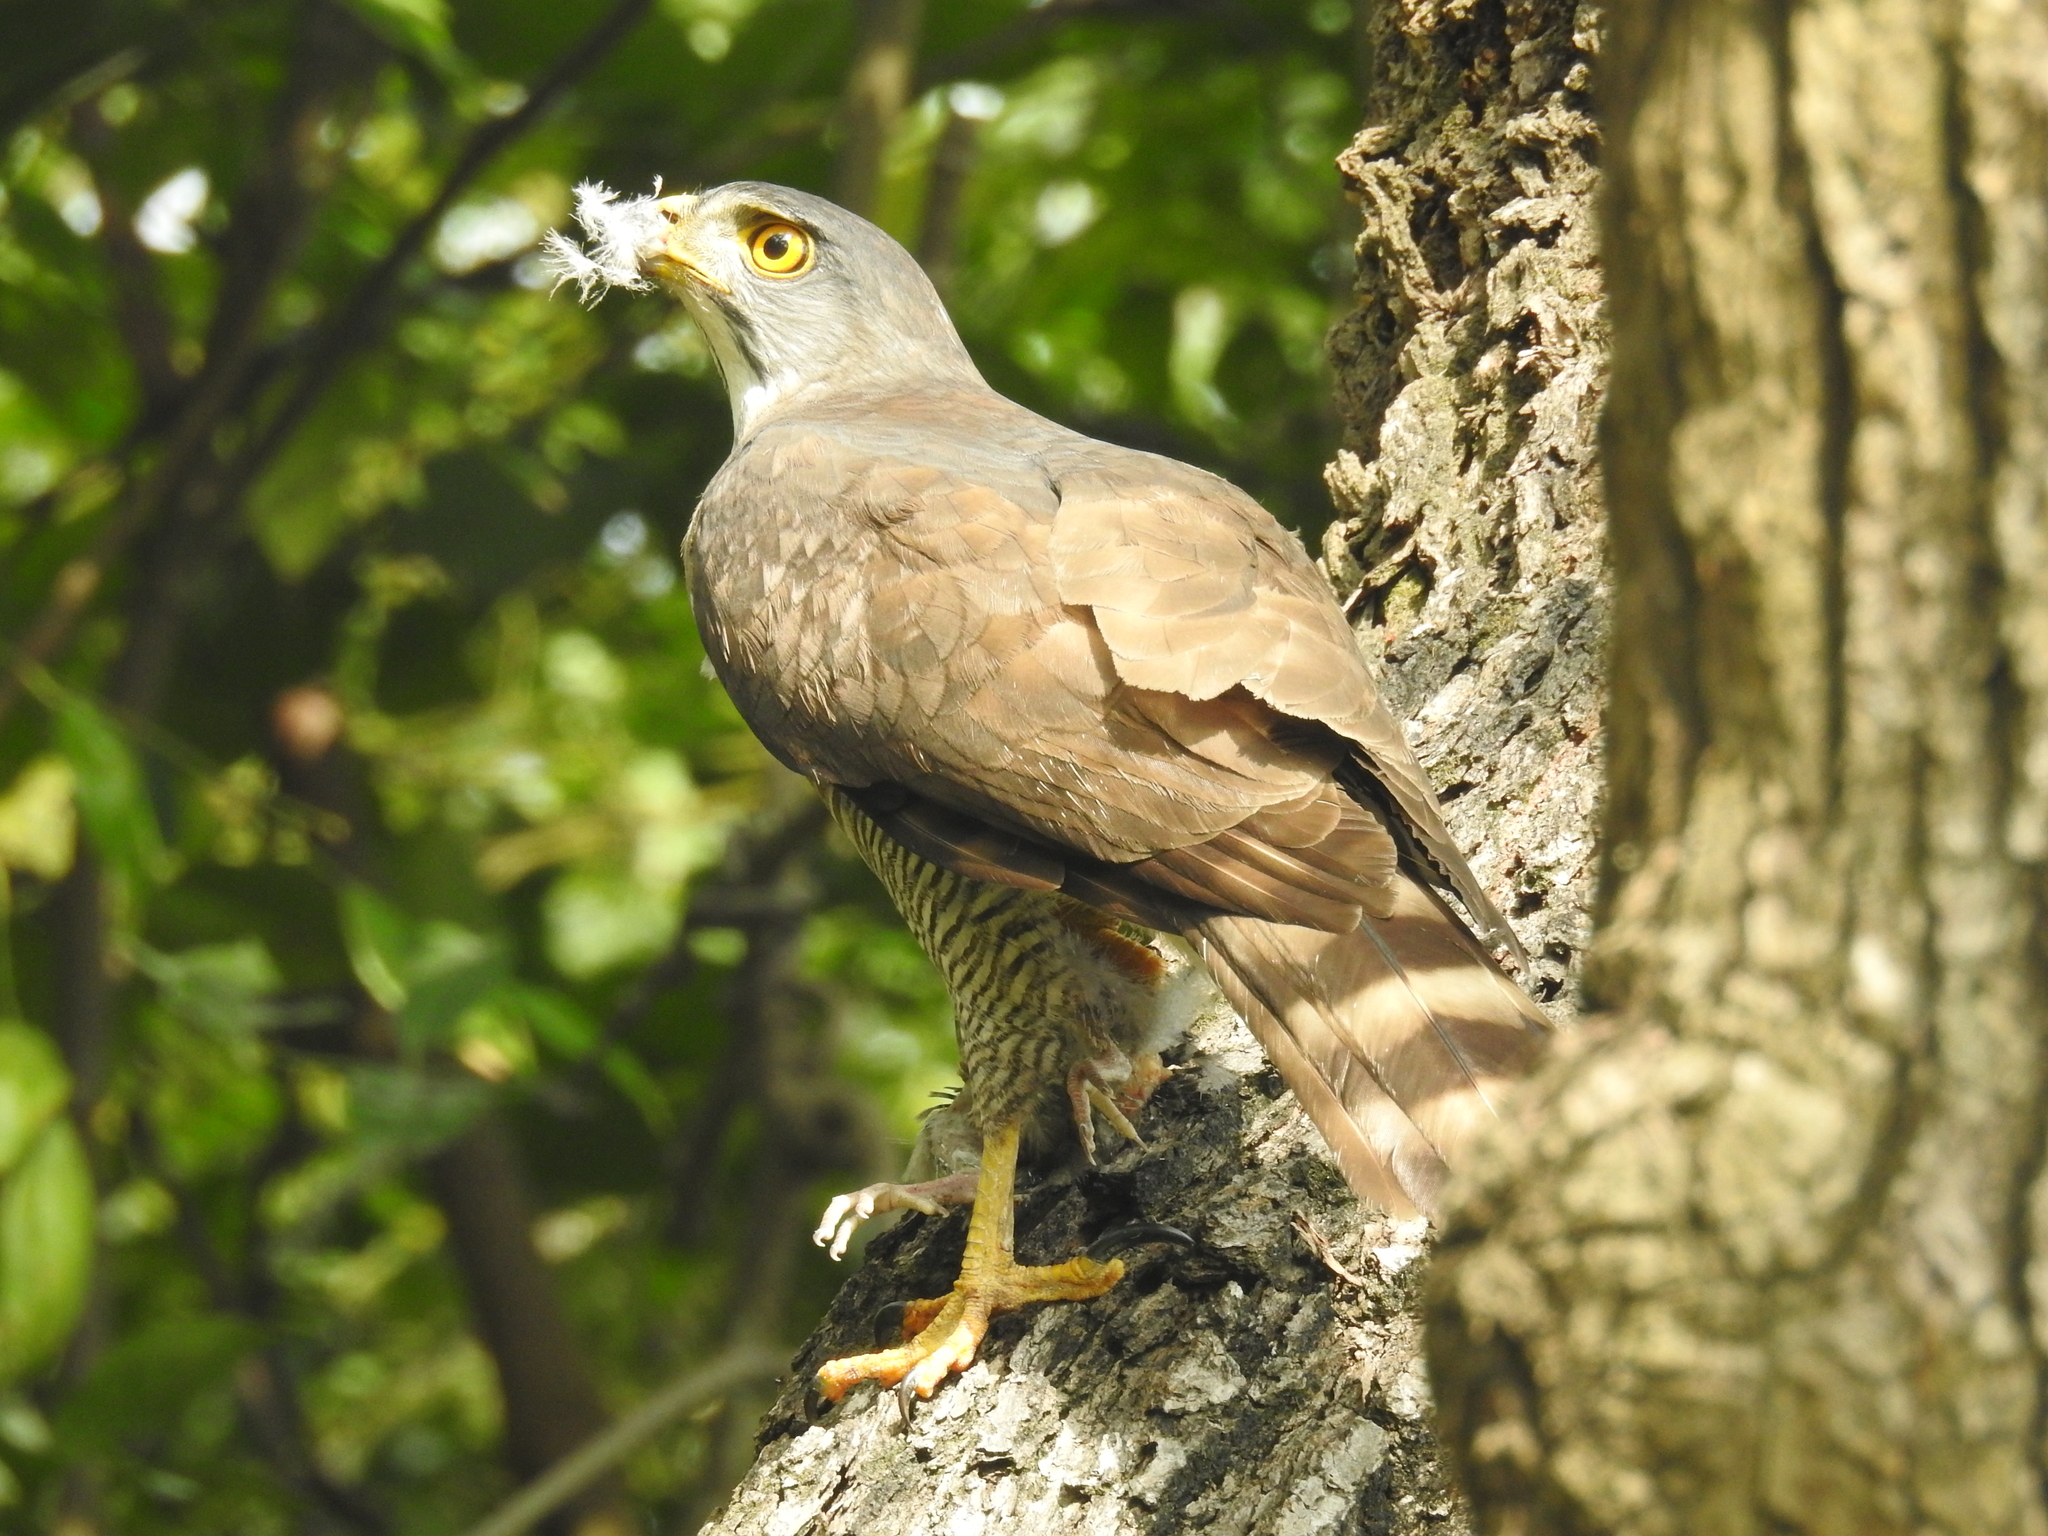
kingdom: Animalia
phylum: Chordata
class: Aves
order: Accipitriformes
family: Accipitridae
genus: Accipiter
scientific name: Accipiter trivirgatus
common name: Crested goshawk
